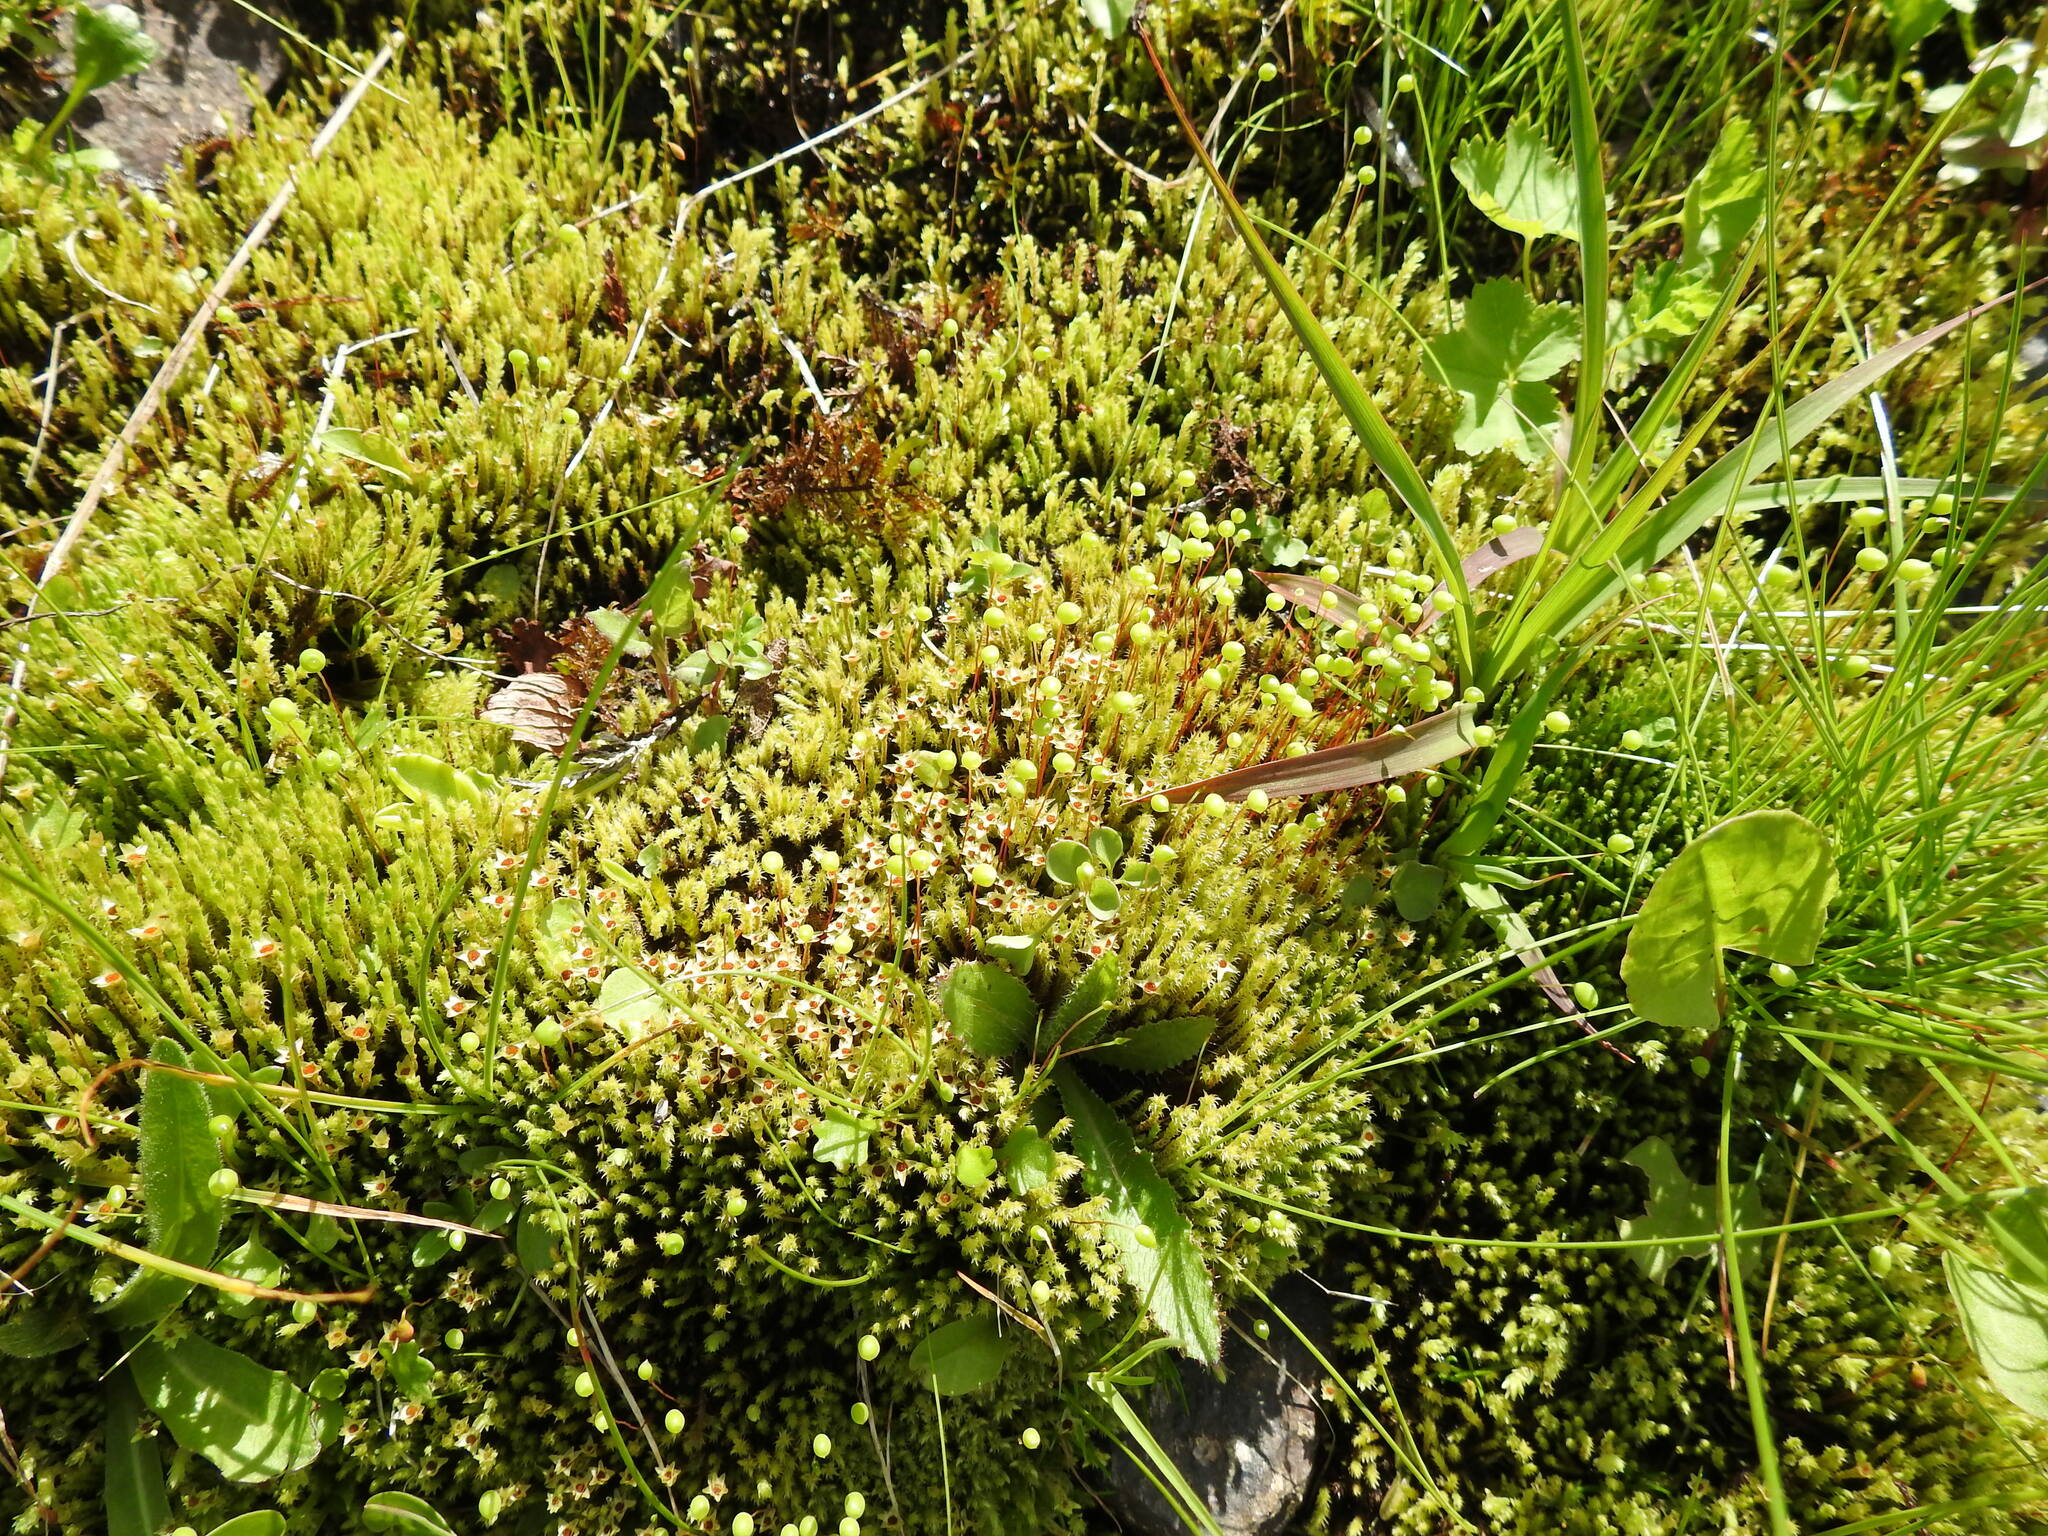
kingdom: Plantae
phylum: Bryophyta
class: Bryopsida
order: Bartramiales
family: Bartramiaceae
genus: Philonotis
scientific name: Philonotis fontana
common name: Fountain apple-moss
